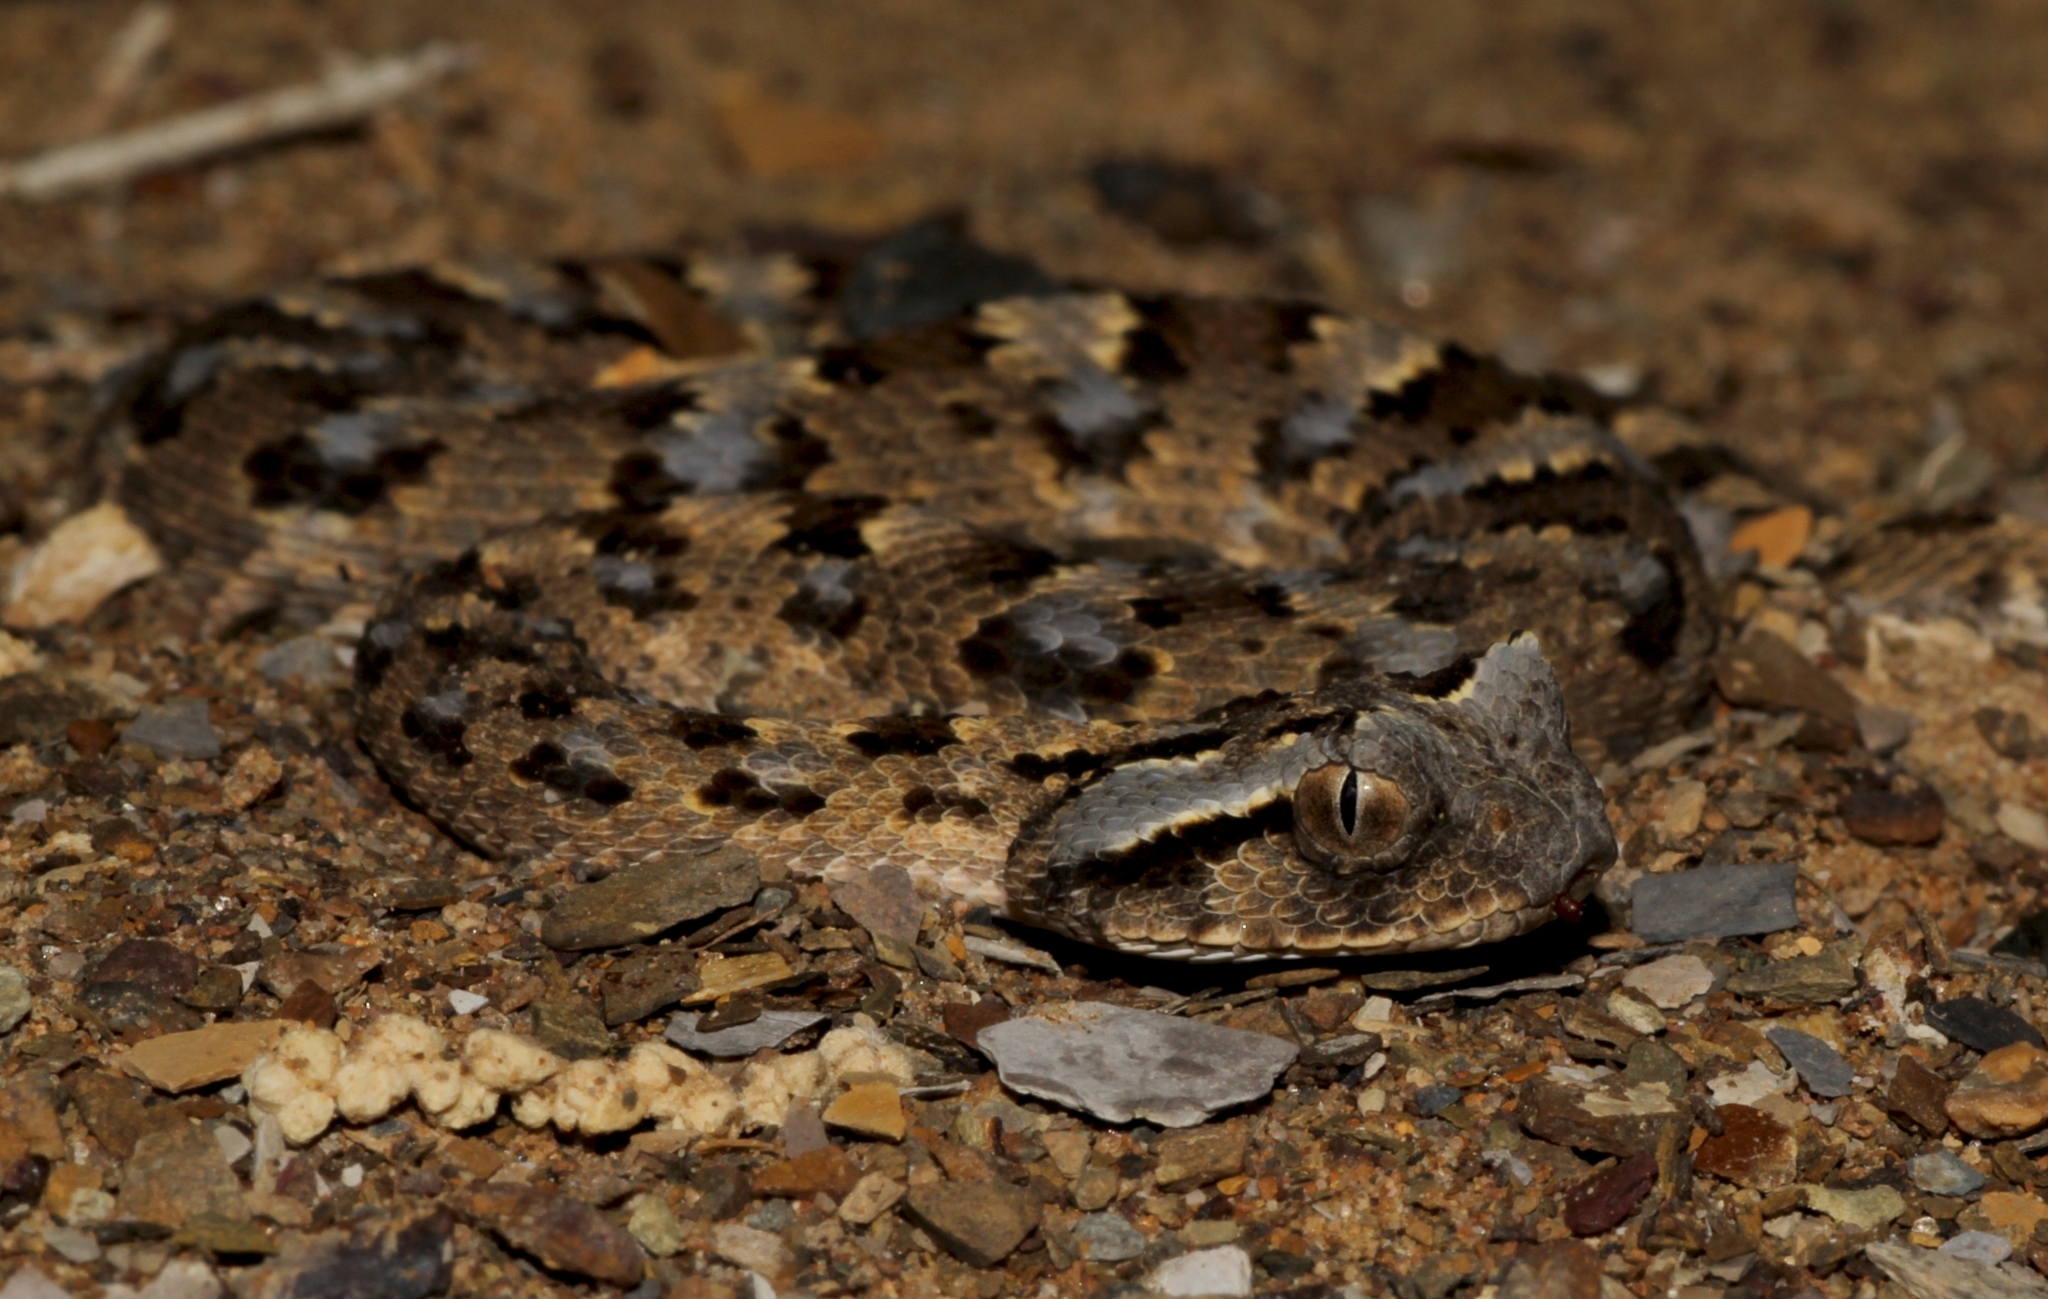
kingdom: Animalia
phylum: Chordata
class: Squamata
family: Viperidae
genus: Bitis
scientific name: Bitis caudalis
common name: Horned adder
